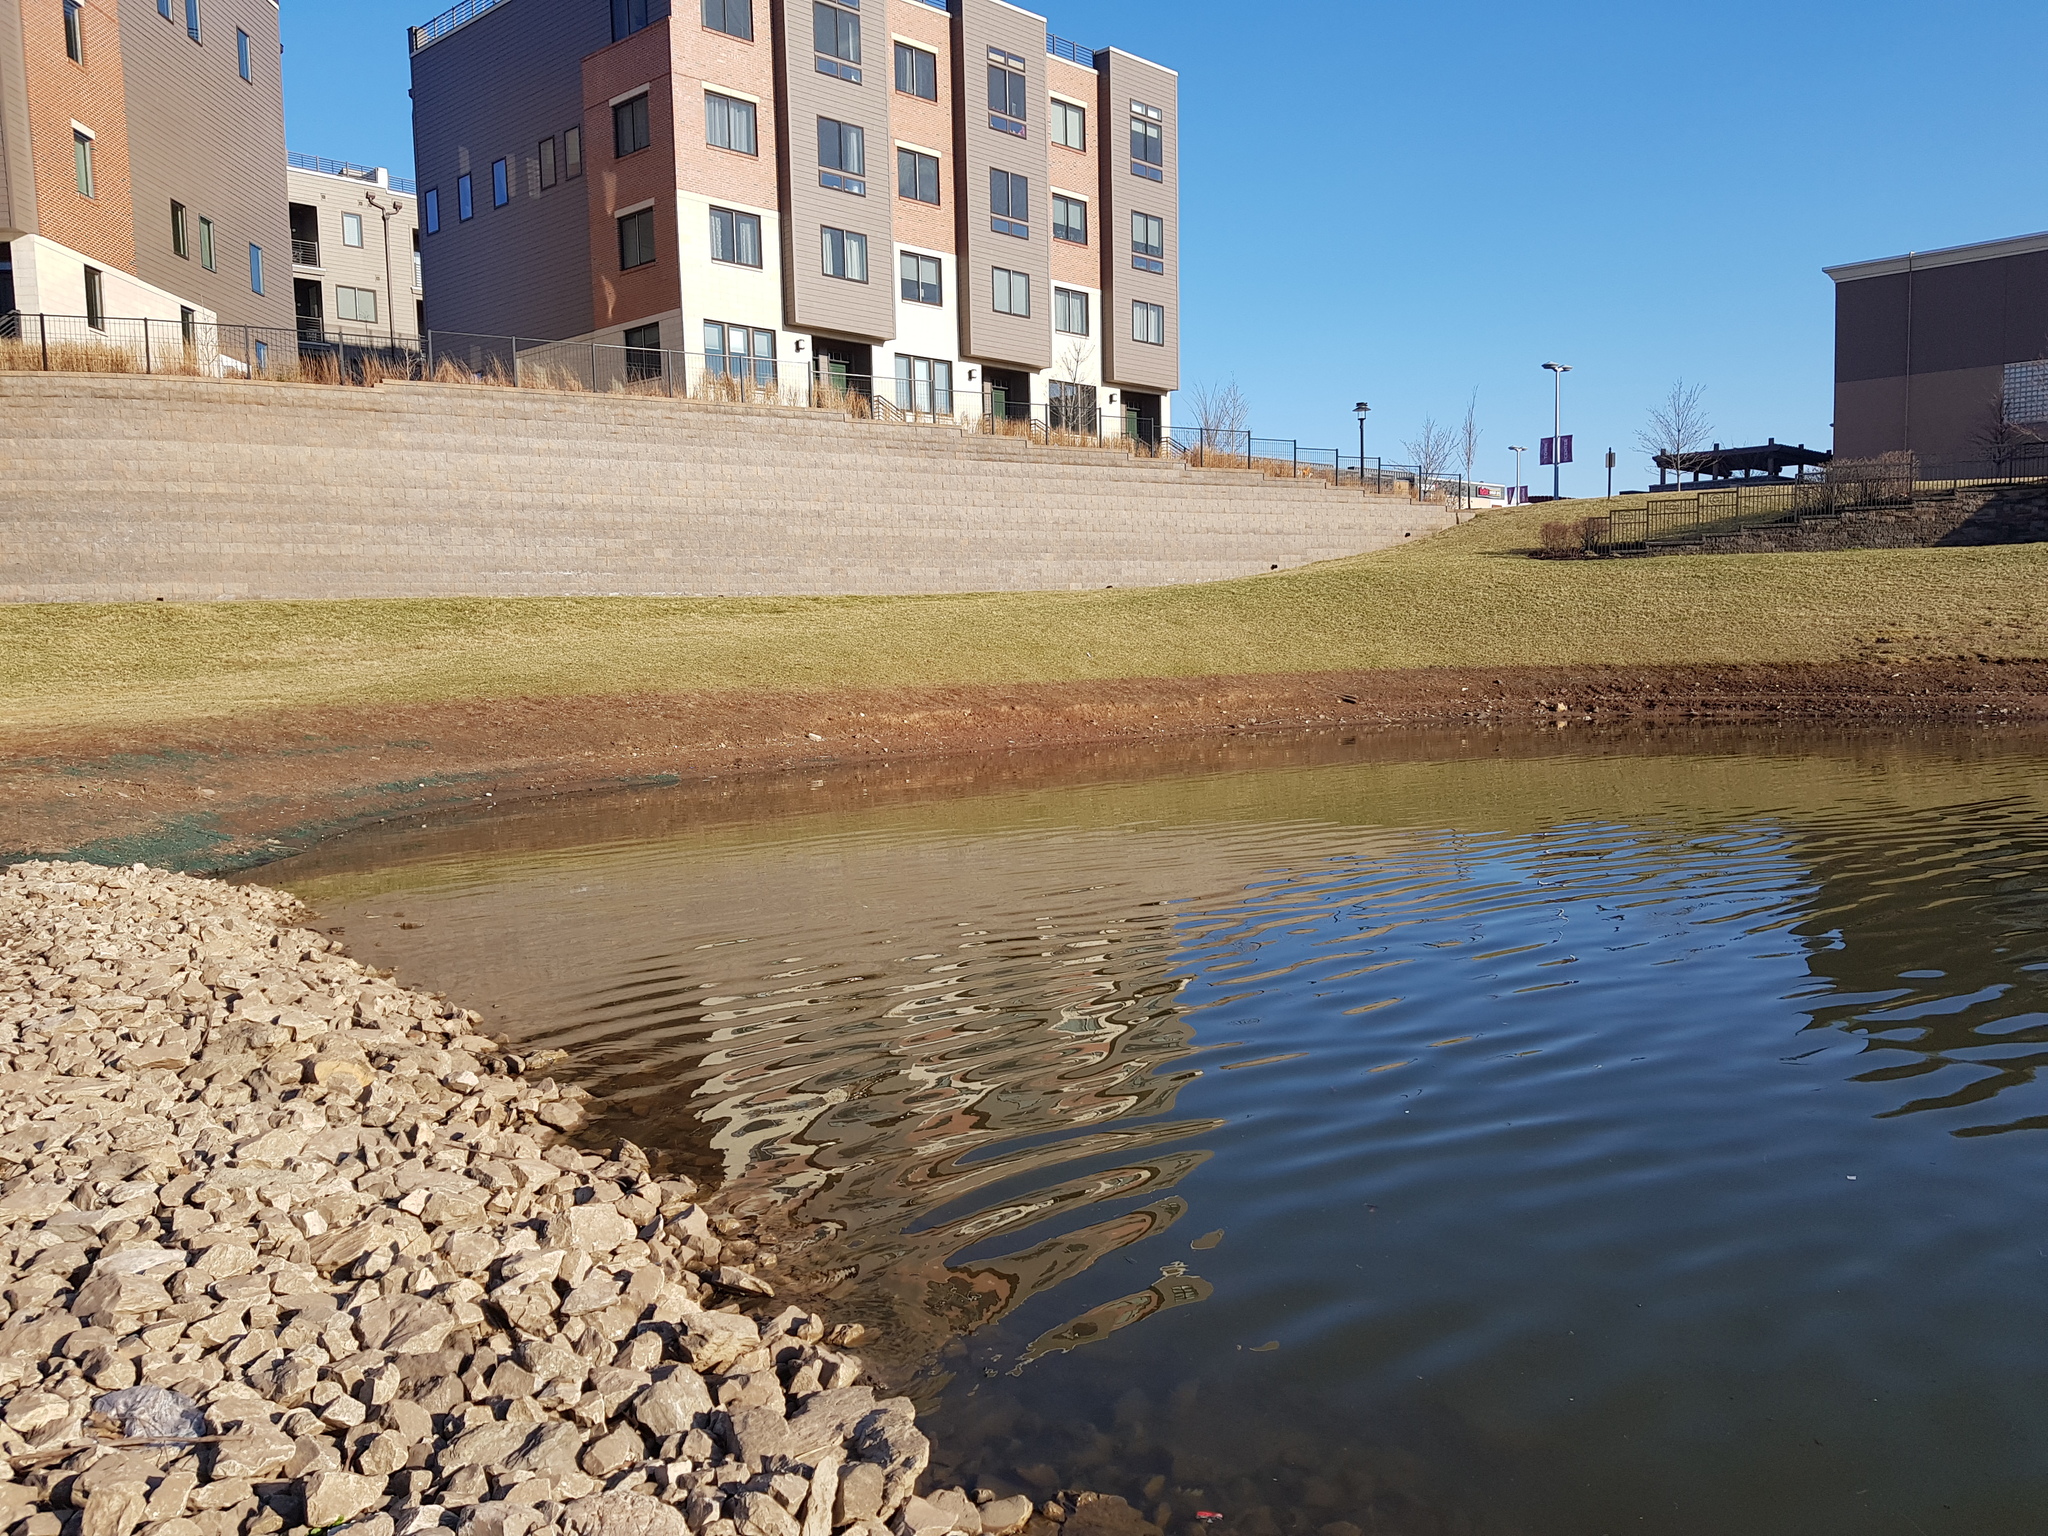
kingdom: Animalia
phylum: Chordata
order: Cypriniformes
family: Cyprinidae
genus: Carassius
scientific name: Carassius auratus
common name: Goldfish
